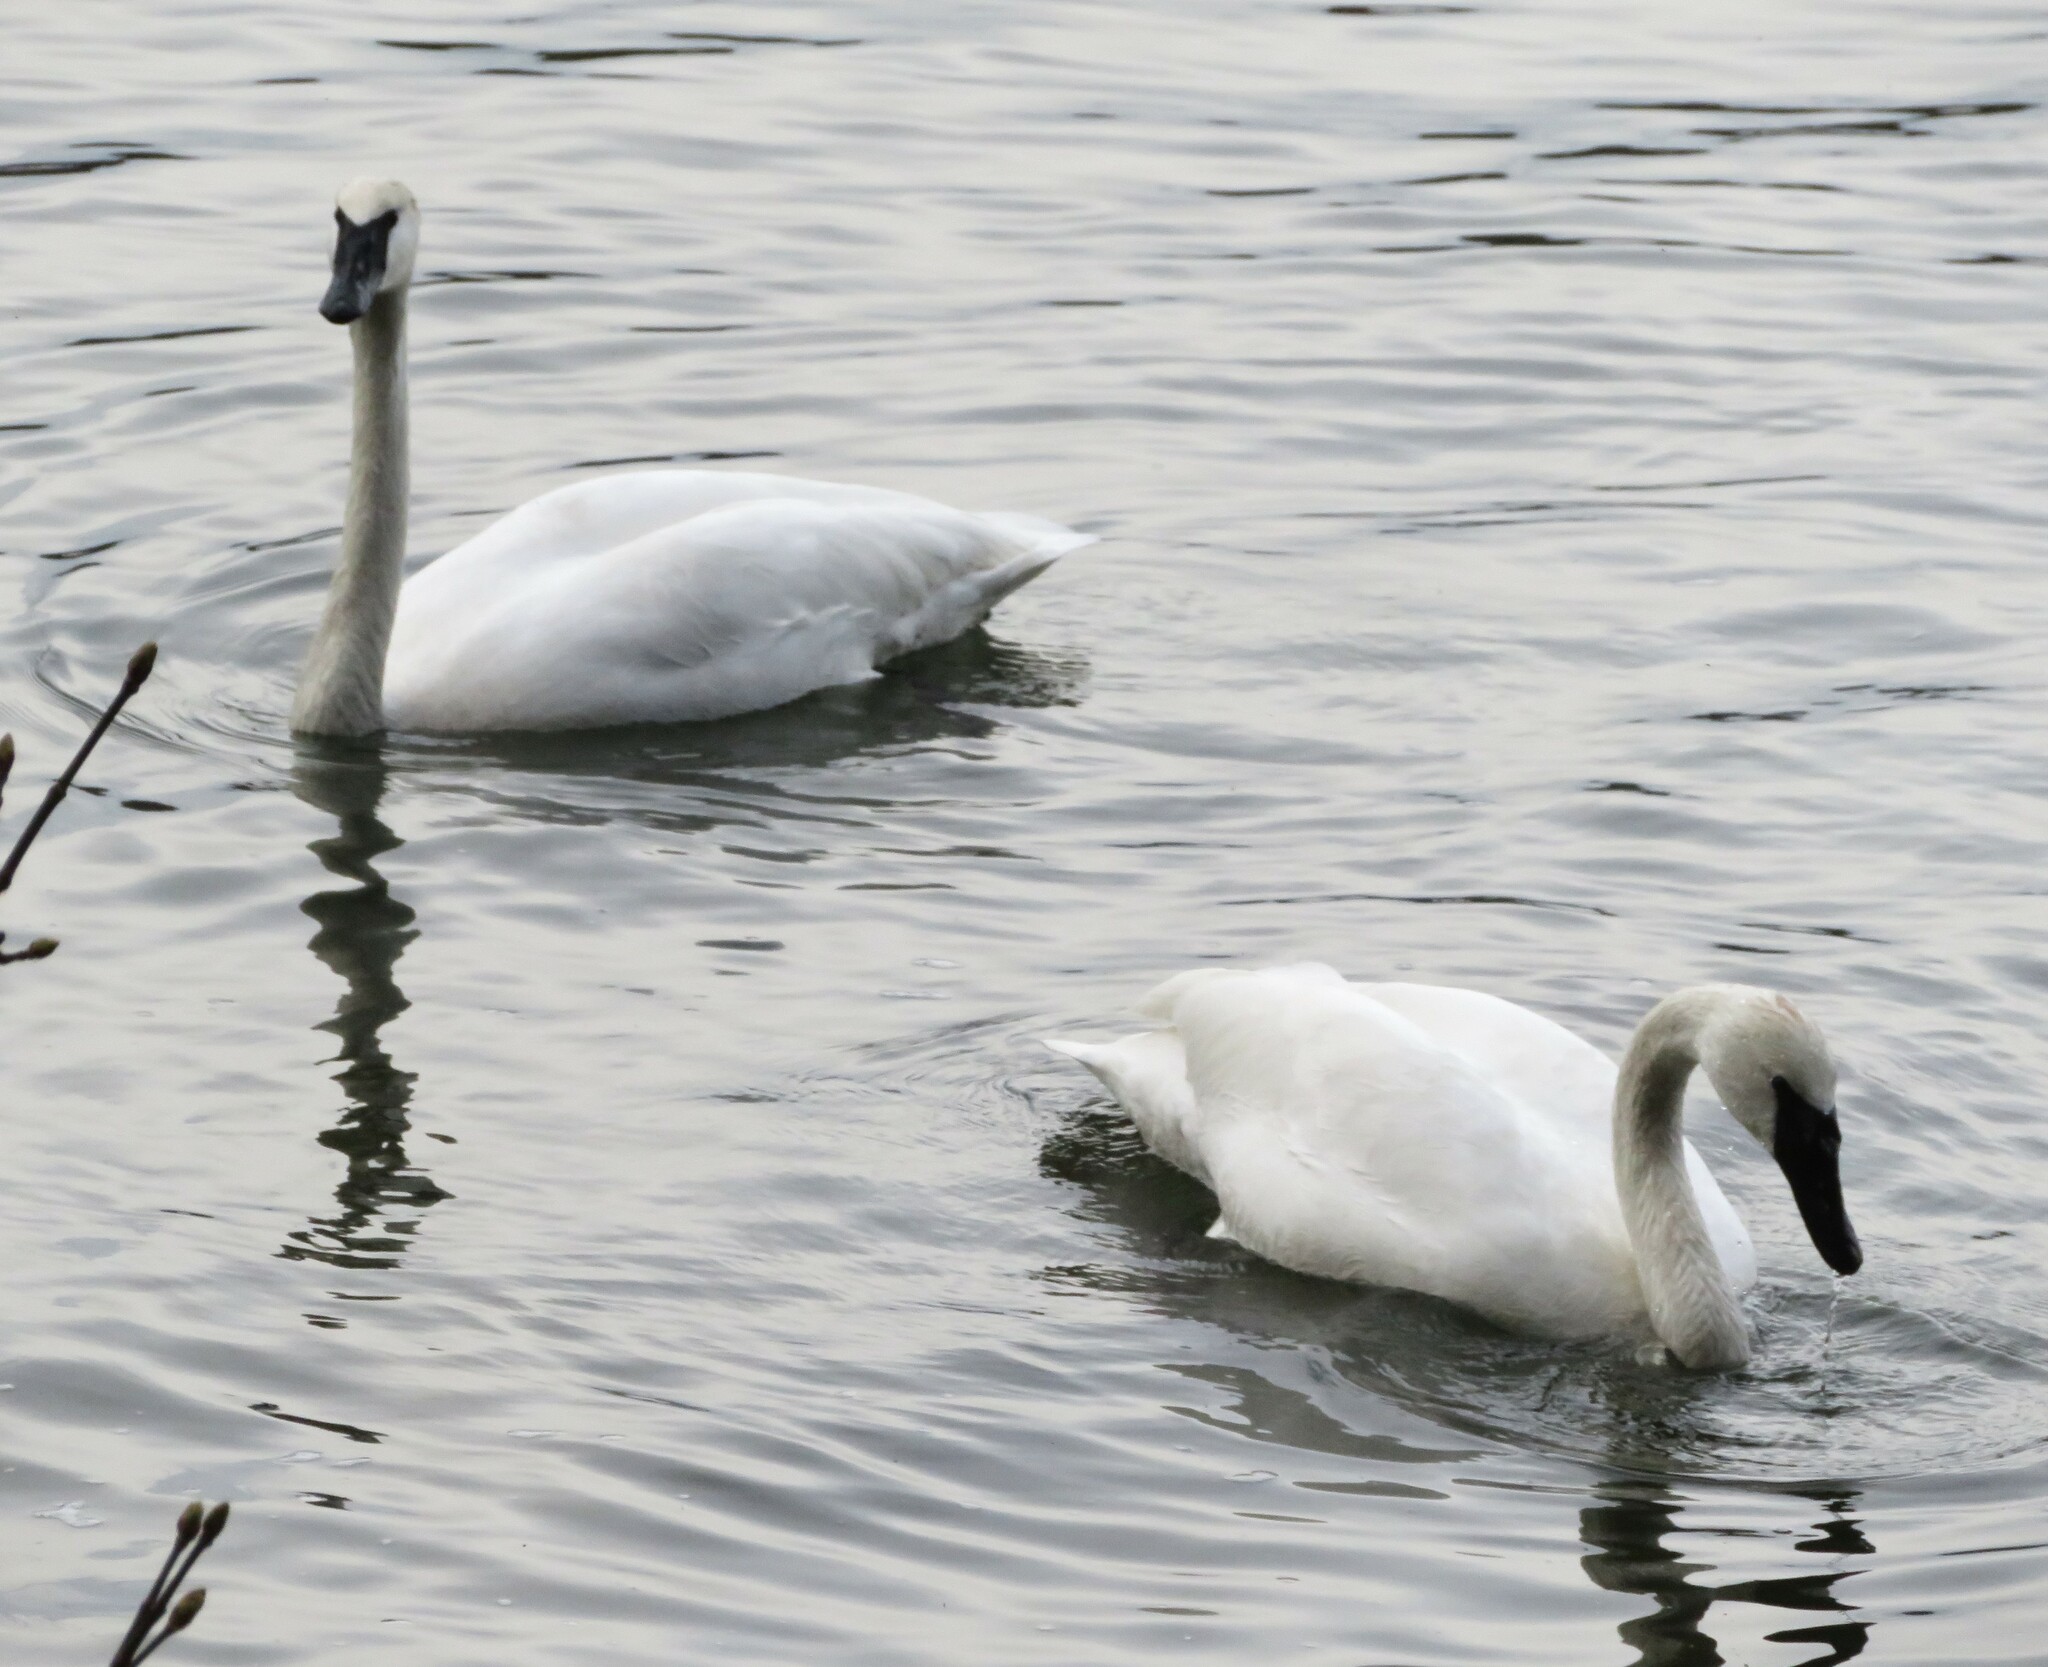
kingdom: Animalia
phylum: Chordata
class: Aves
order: Anseriformes
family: Anatidae
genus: Cygnus
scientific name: Cygnus buccinator
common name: Trumpeter swan
